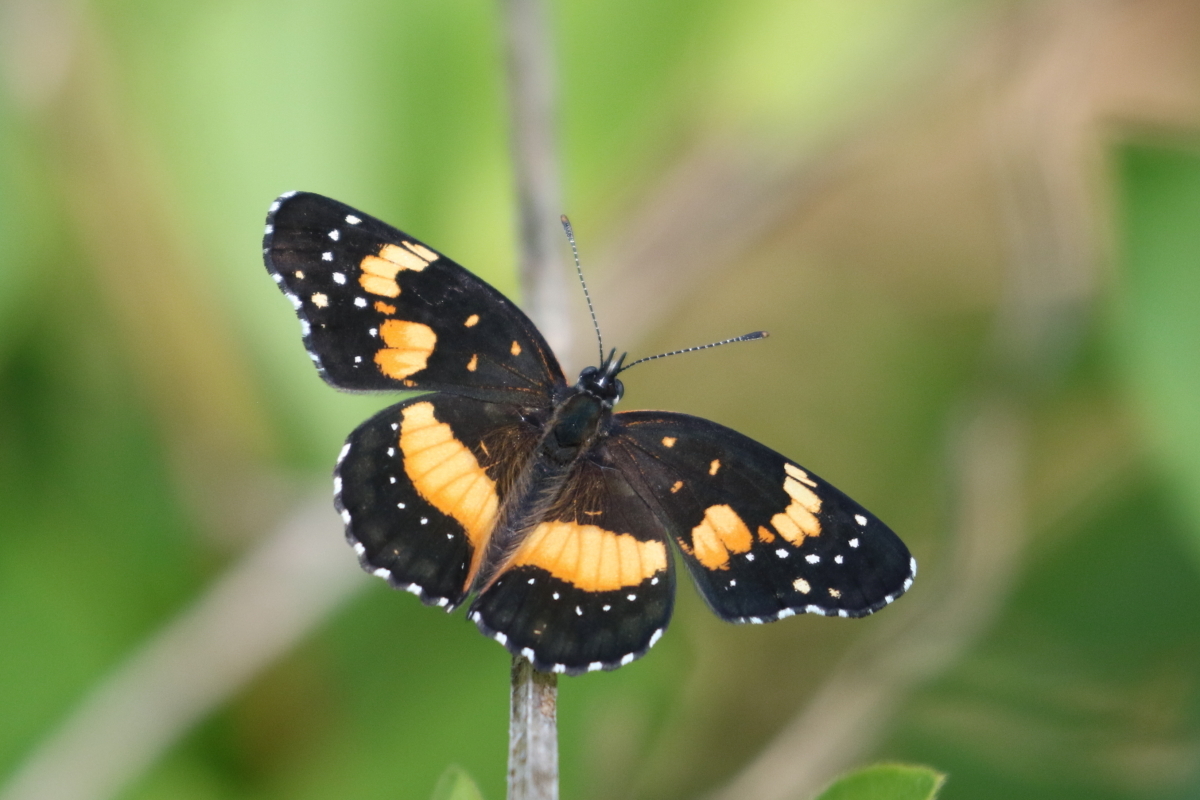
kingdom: Animalia
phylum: Arthropoda
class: Insecta
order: Lepidoptera
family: Nymphalidae
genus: Chlosyne
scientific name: Chlosyne lacinia
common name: Bordered patch
